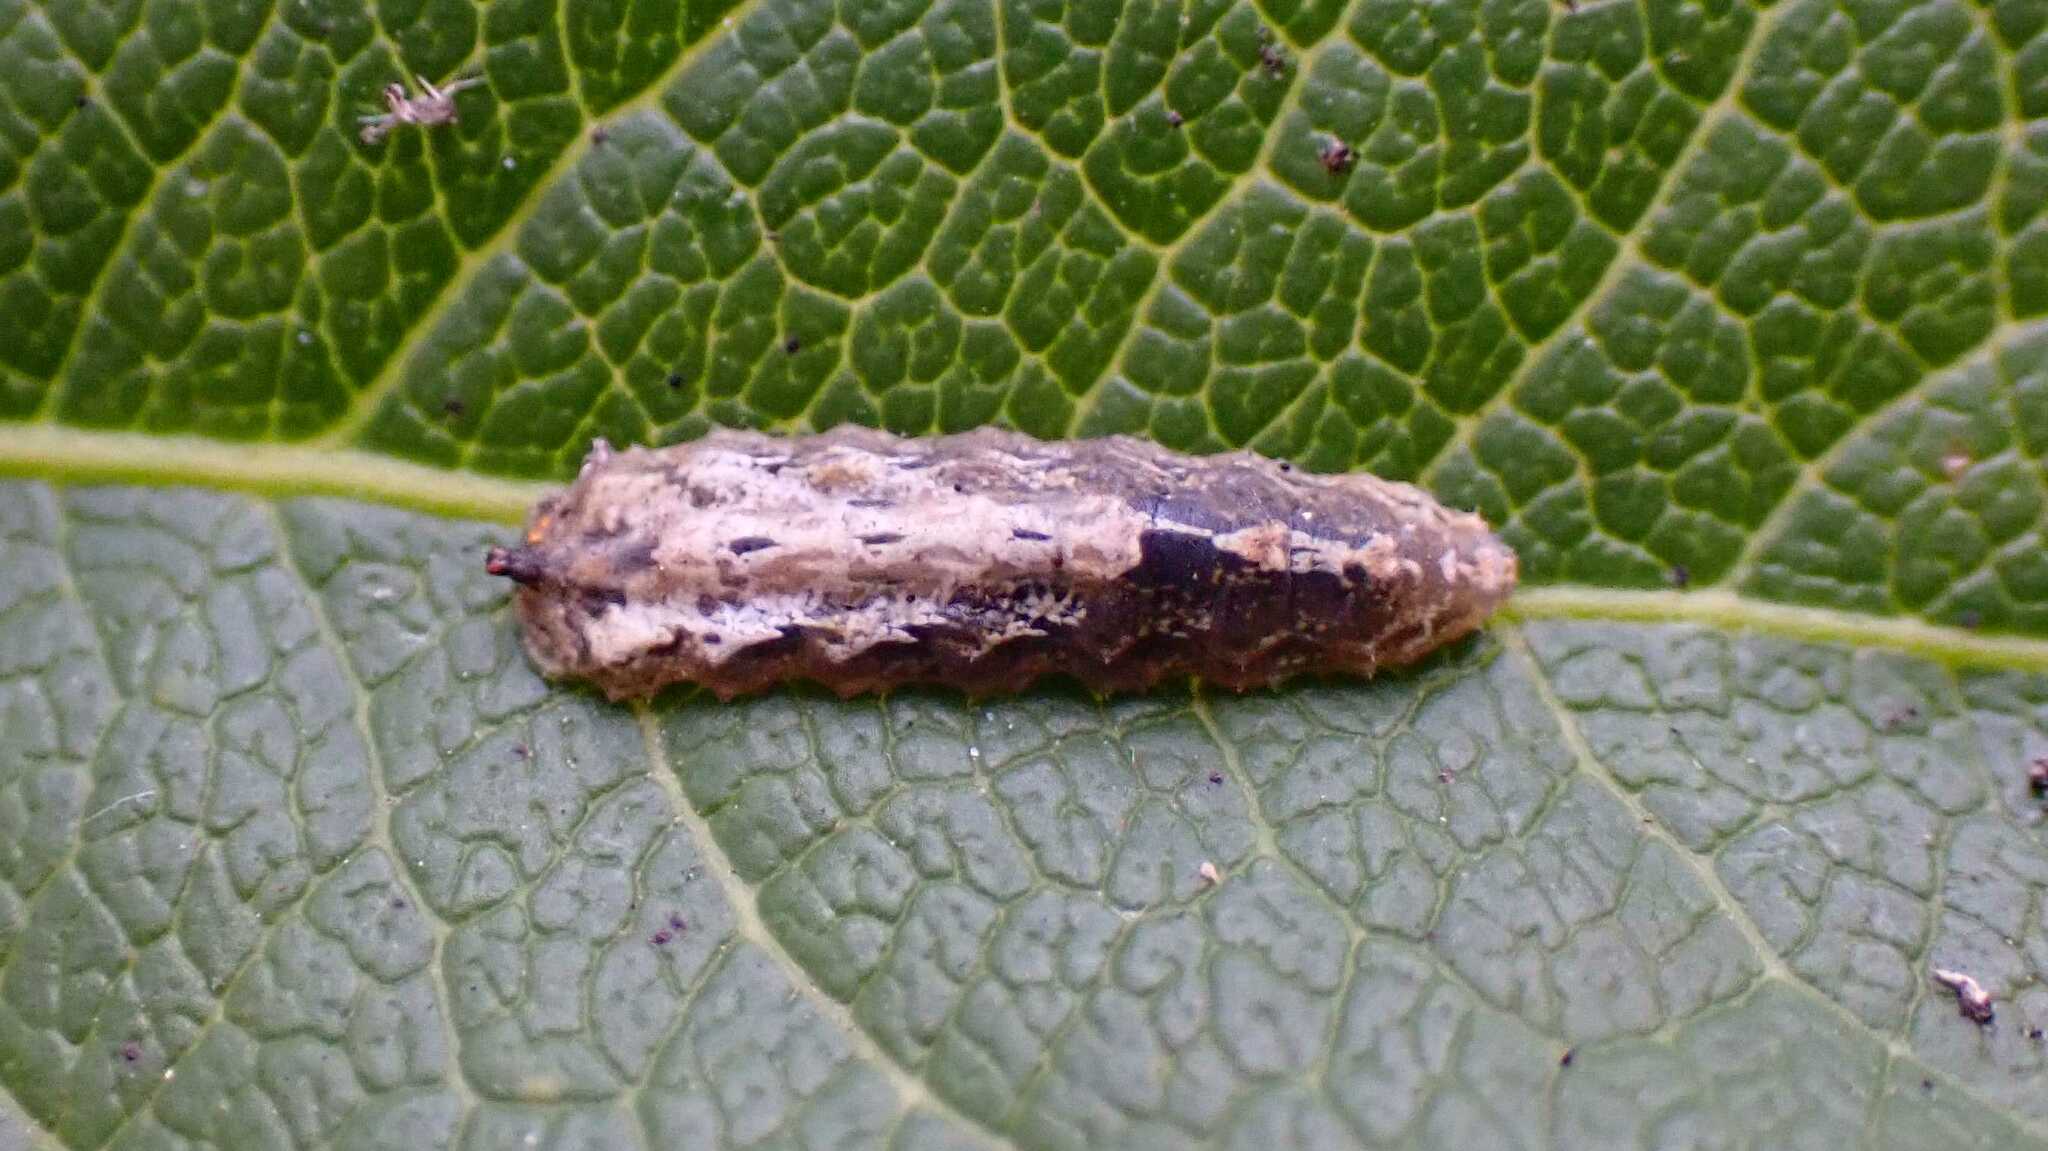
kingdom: Animalia
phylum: Arthropoda
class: Insecta
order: Diptera
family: Syrphidae
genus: Meligramma
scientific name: Meligramma triangulifera
